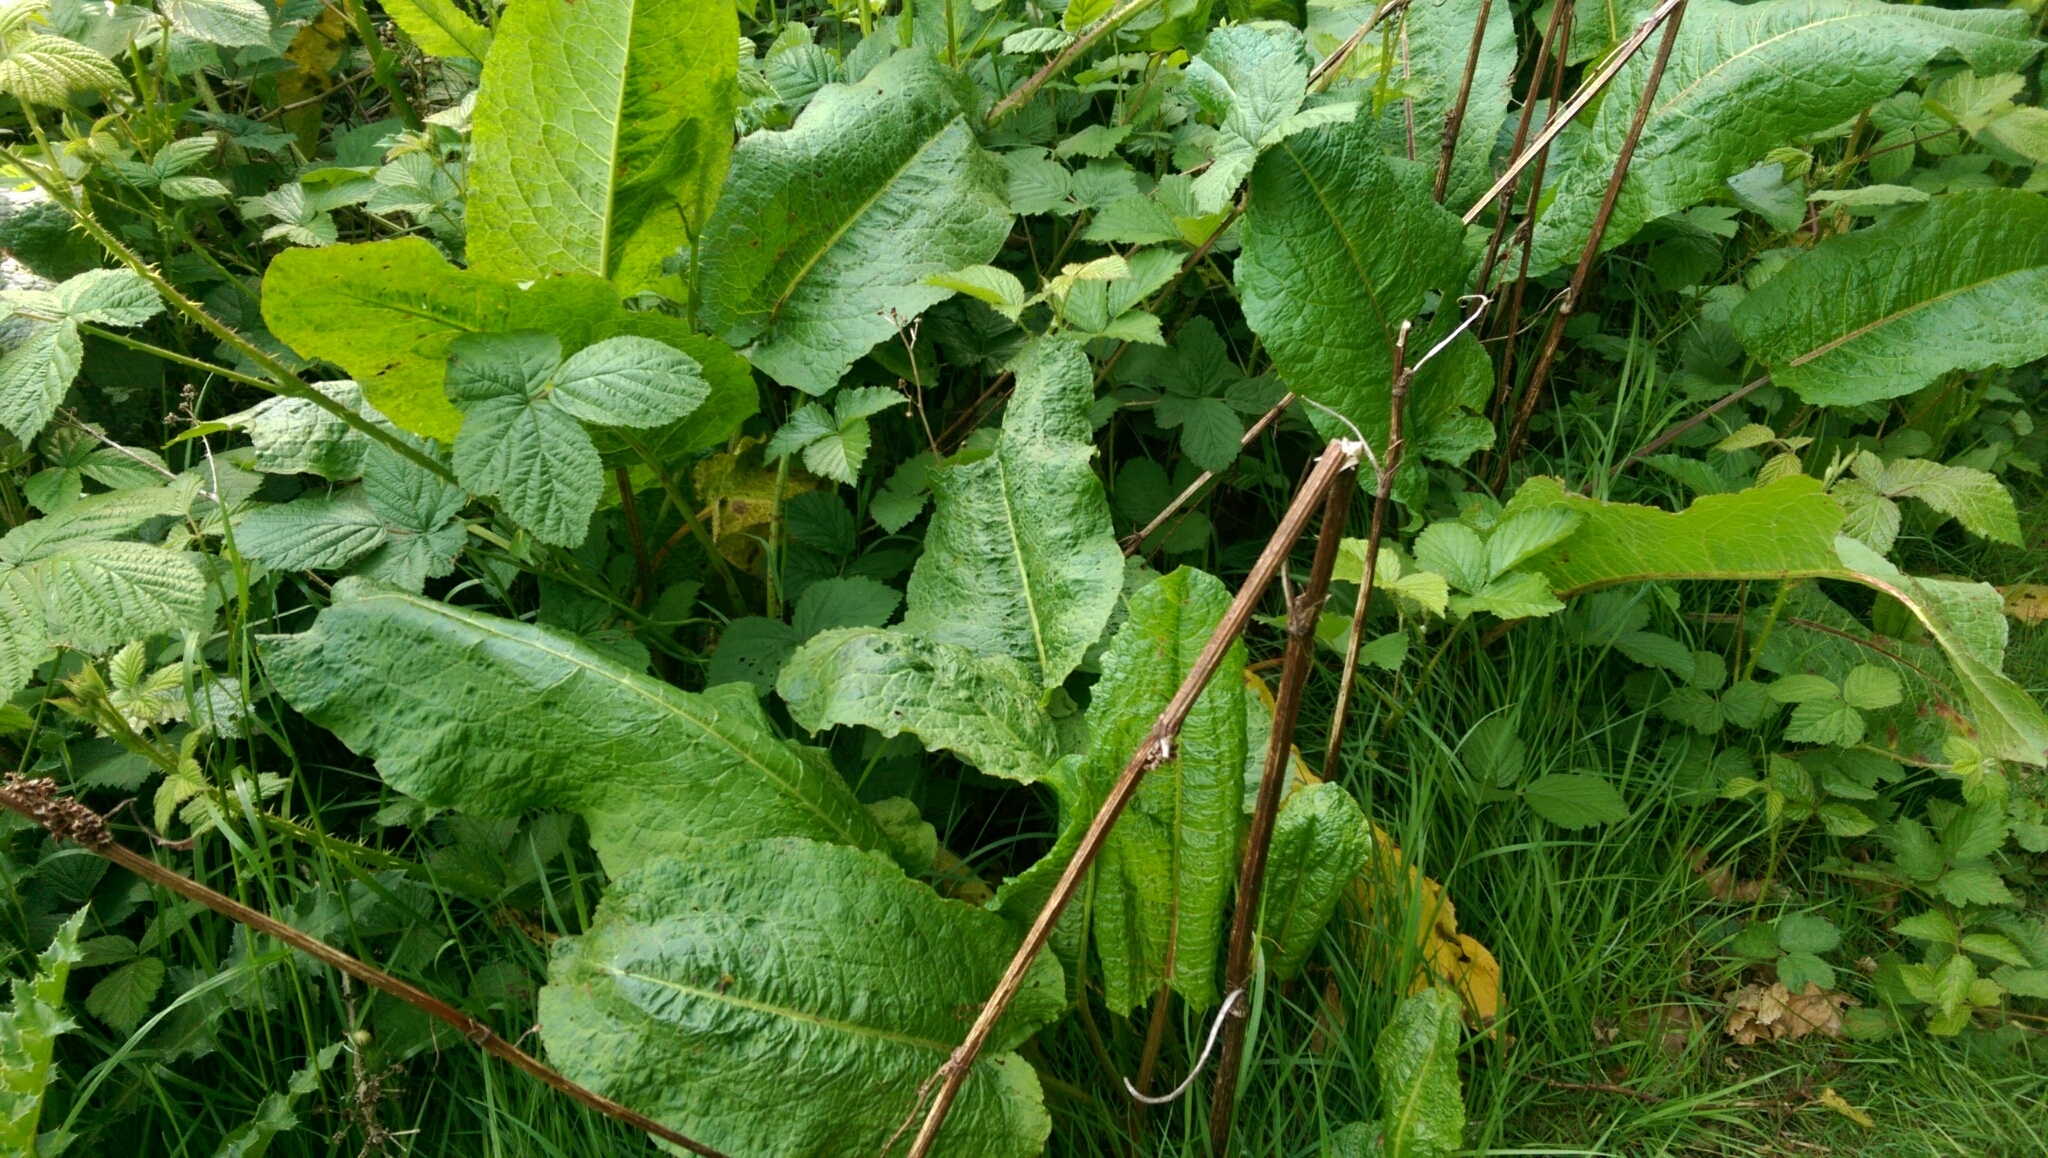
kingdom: Plantae
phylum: Tracheophyta
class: Magnoliopsida
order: Caryophyllales
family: Polygonaceae
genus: Rumex
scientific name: Rumex obtusifolius
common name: Bitter dock
